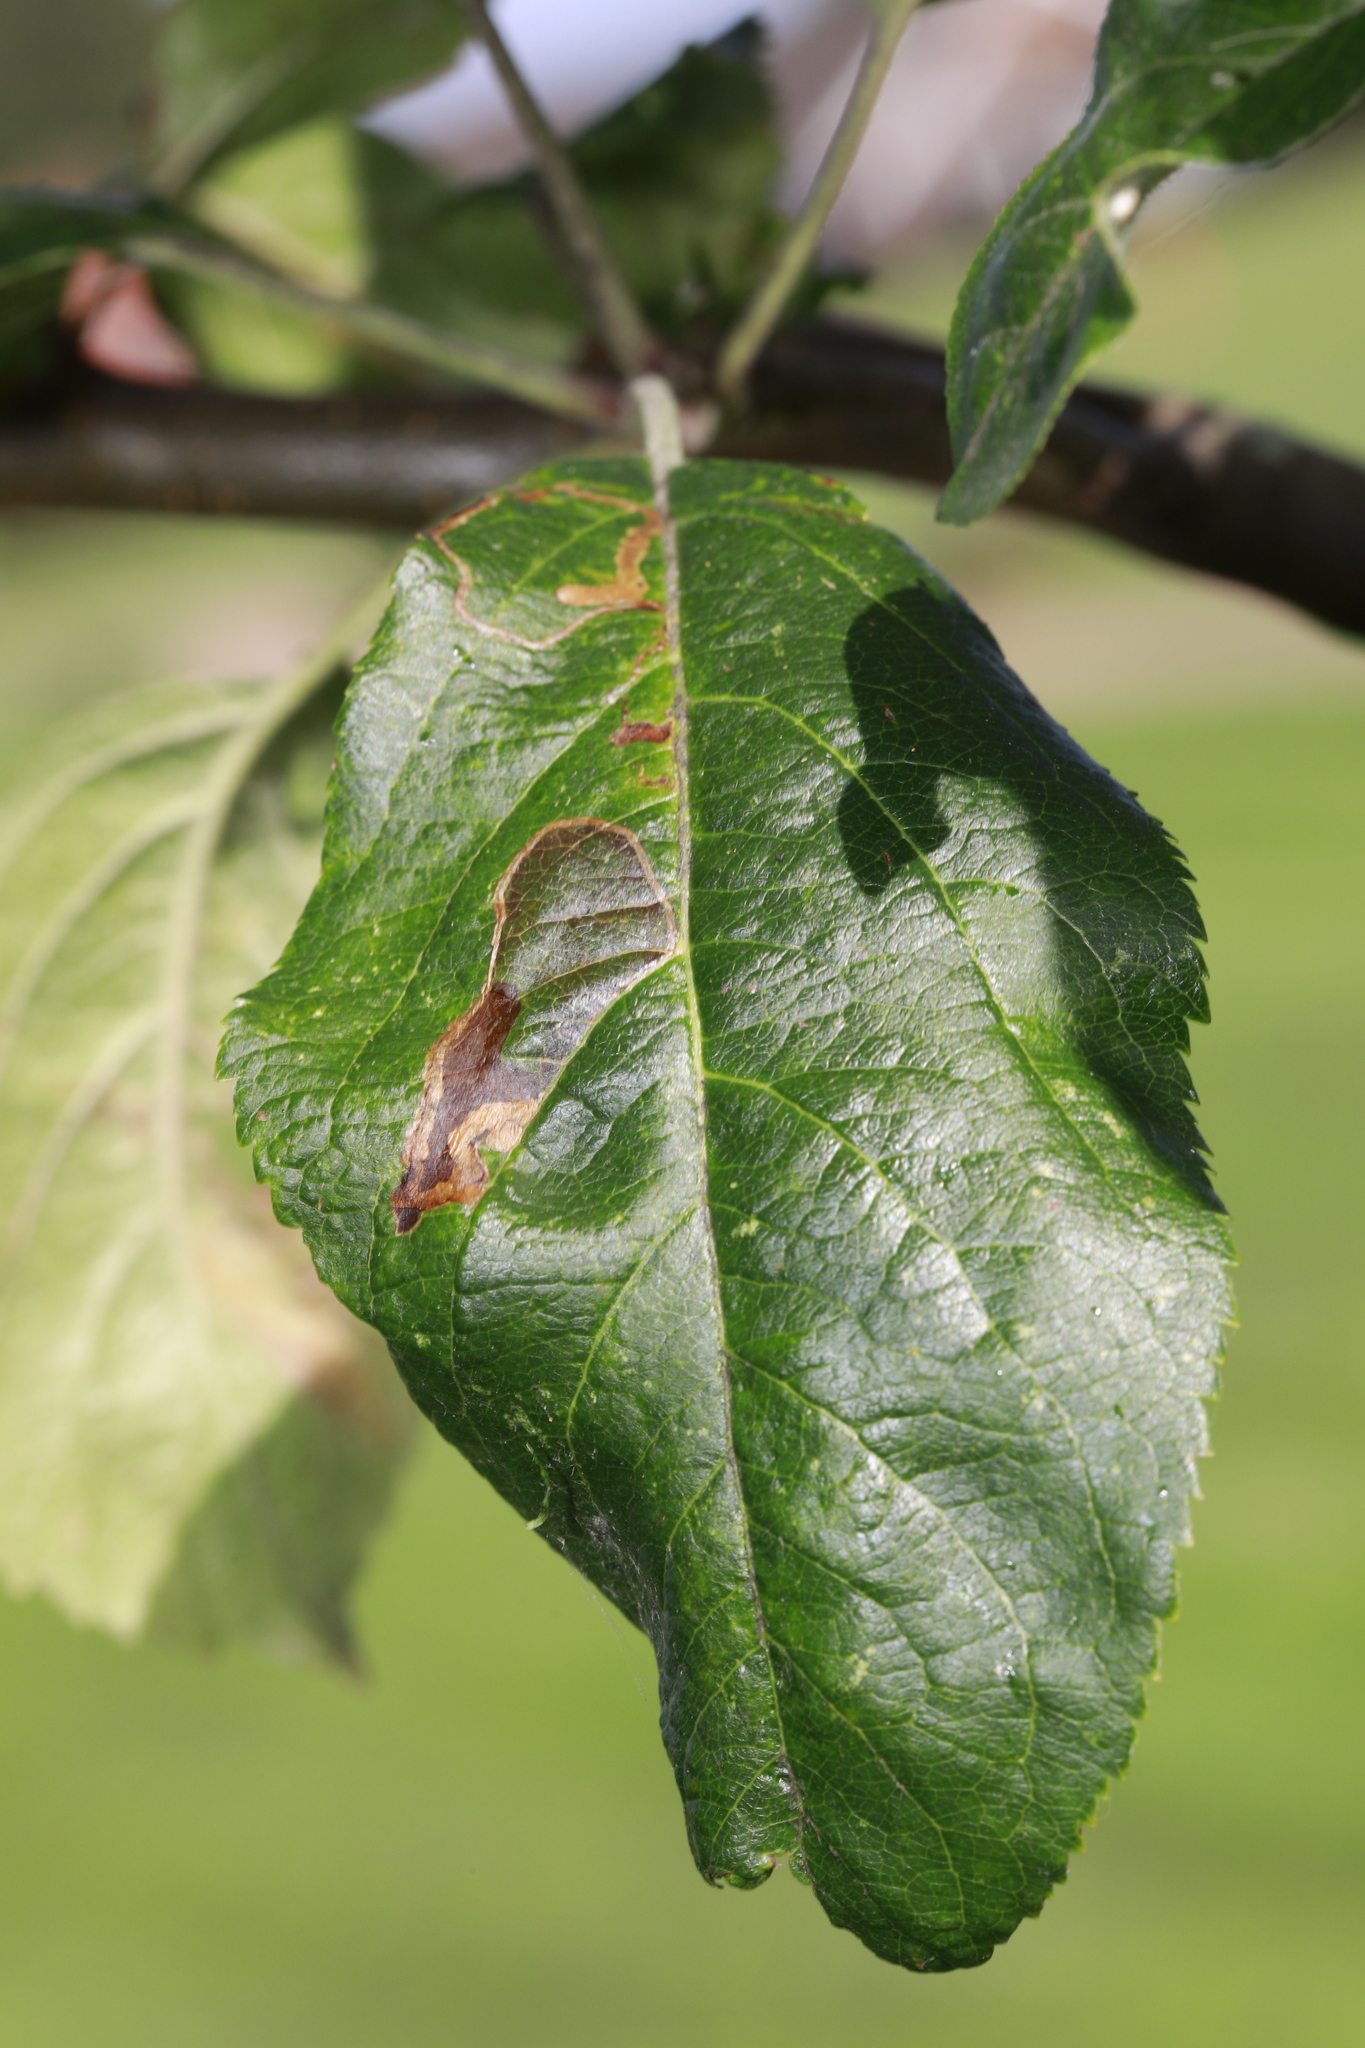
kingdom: Animalia
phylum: Arthropoda
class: Insecta
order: Lepidoptera
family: Lyonetiidae
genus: Lyonetia
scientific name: Lyonetia clerkella
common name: Apple leaf miner
